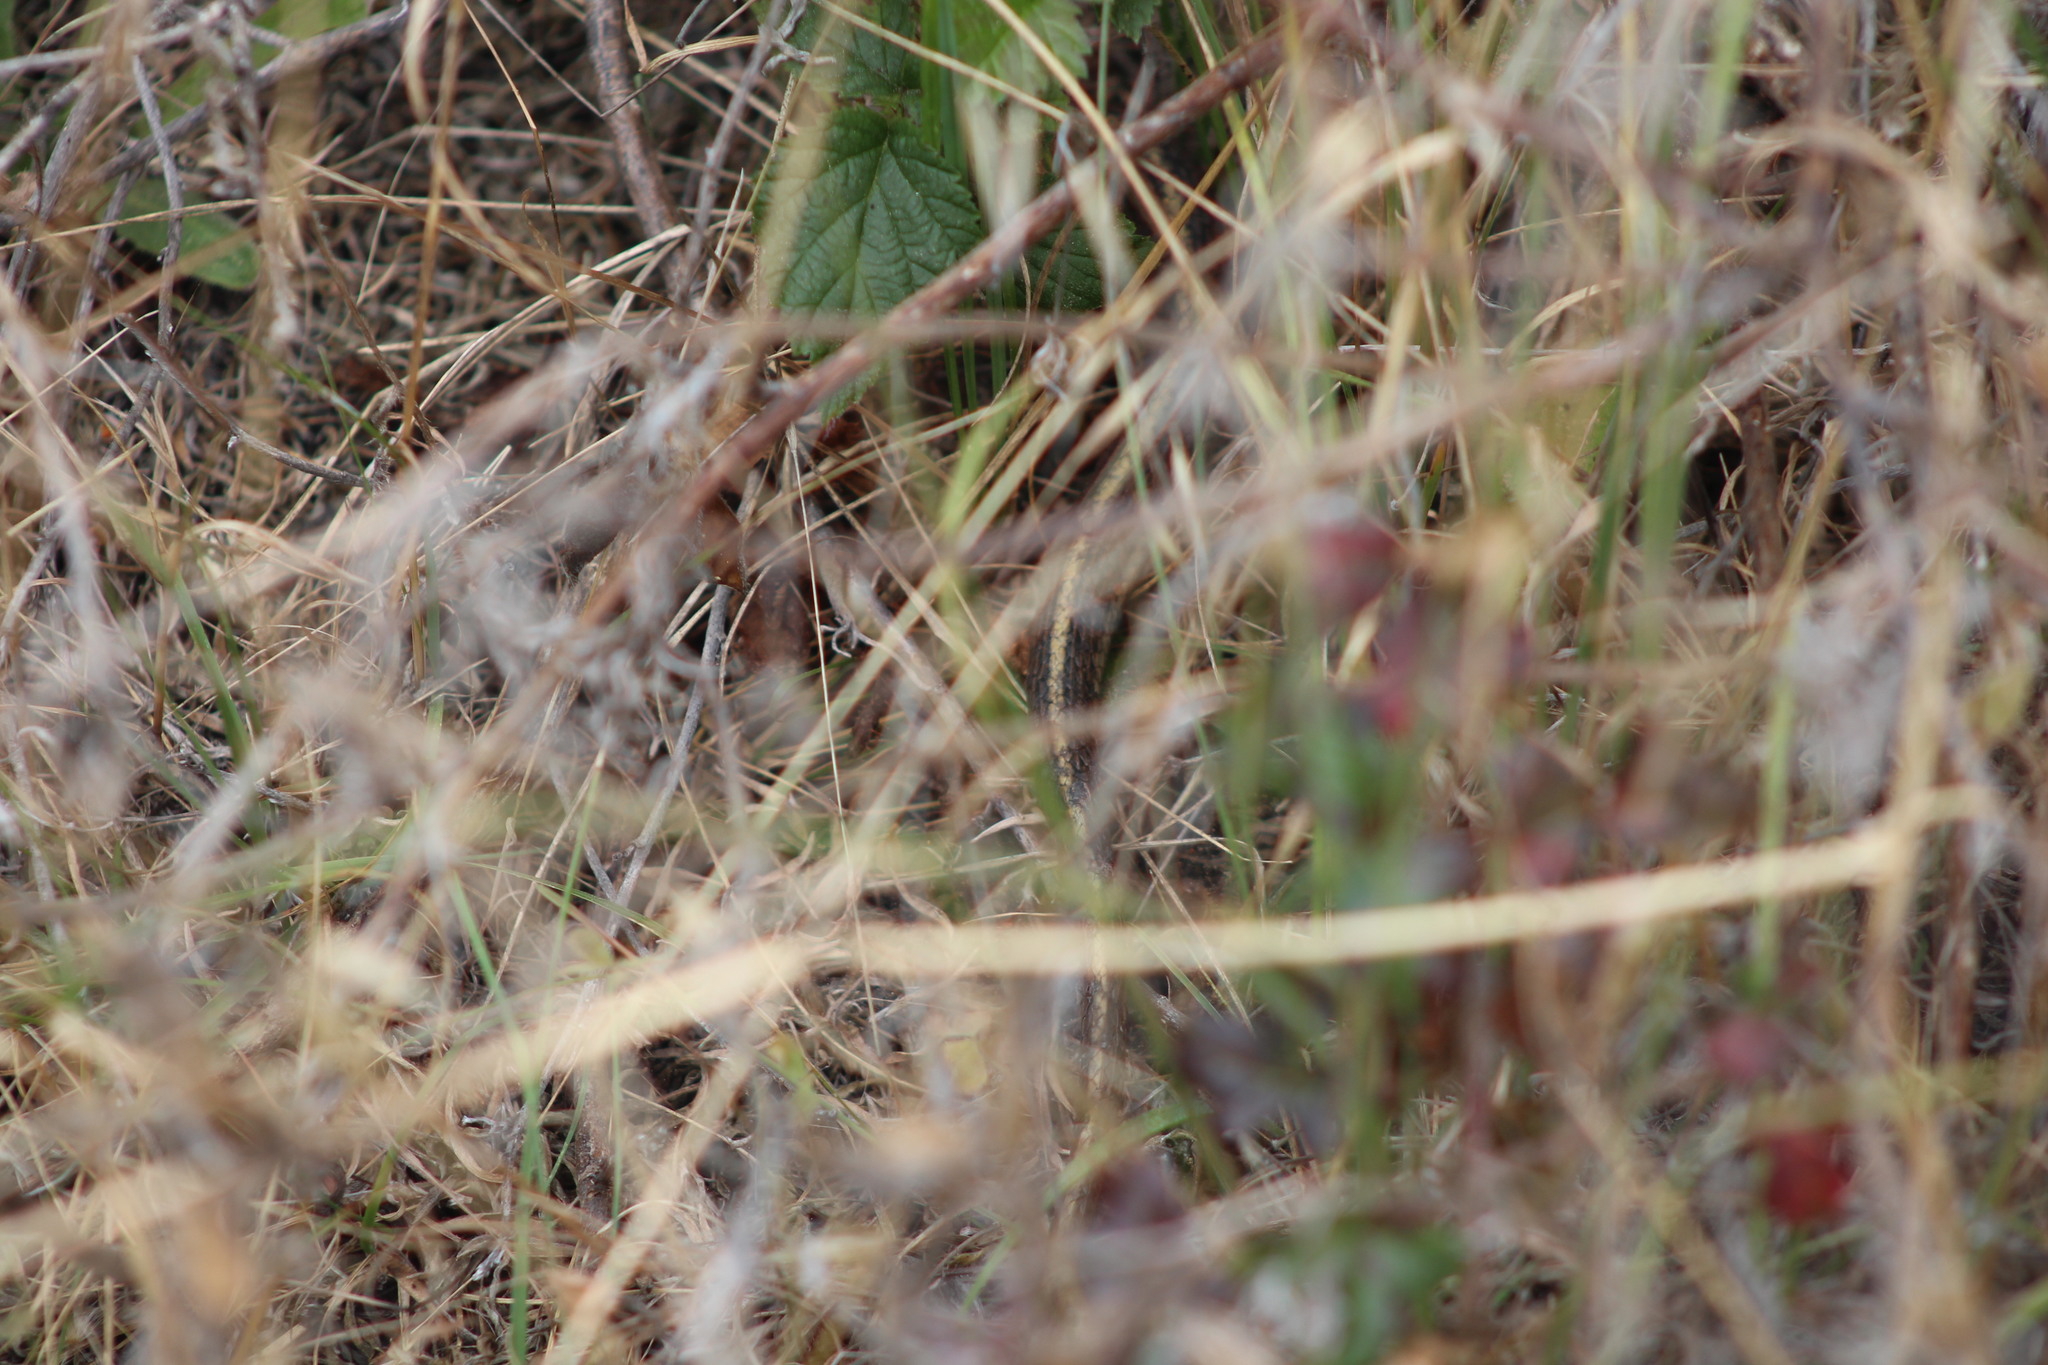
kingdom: Animalia
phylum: Chordata
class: Squamata
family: Colubridae
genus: Thamnophis
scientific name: Thamnophis elegans
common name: Western terrestrial garter snake
